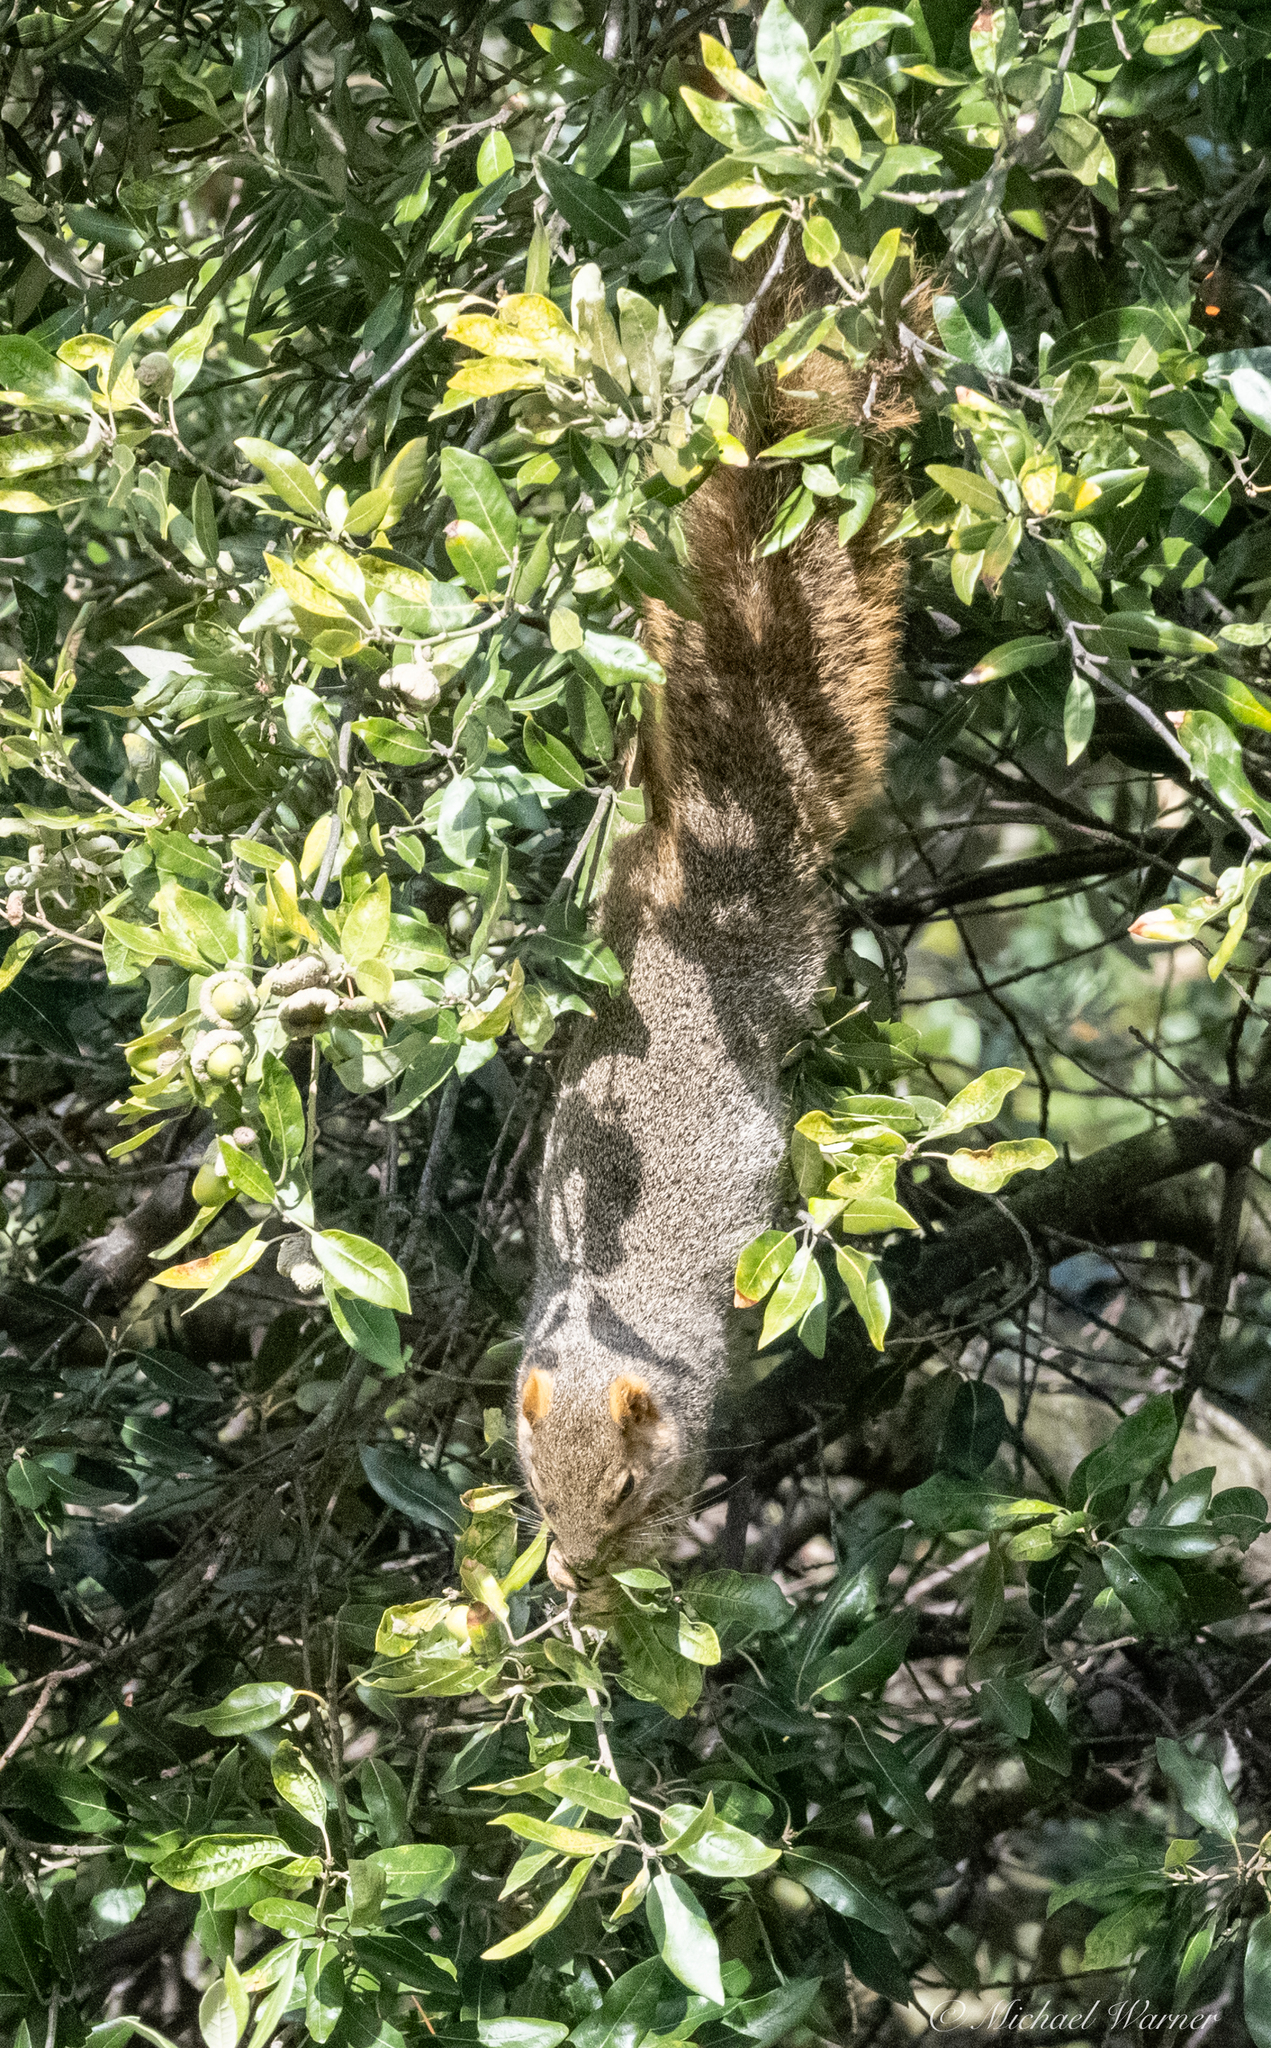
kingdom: Animalia
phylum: Chordata
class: Mammalia
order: Rodentia
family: Sciuridae
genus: Sciurus
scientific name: Sciurus niger
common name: Fox squirrel
